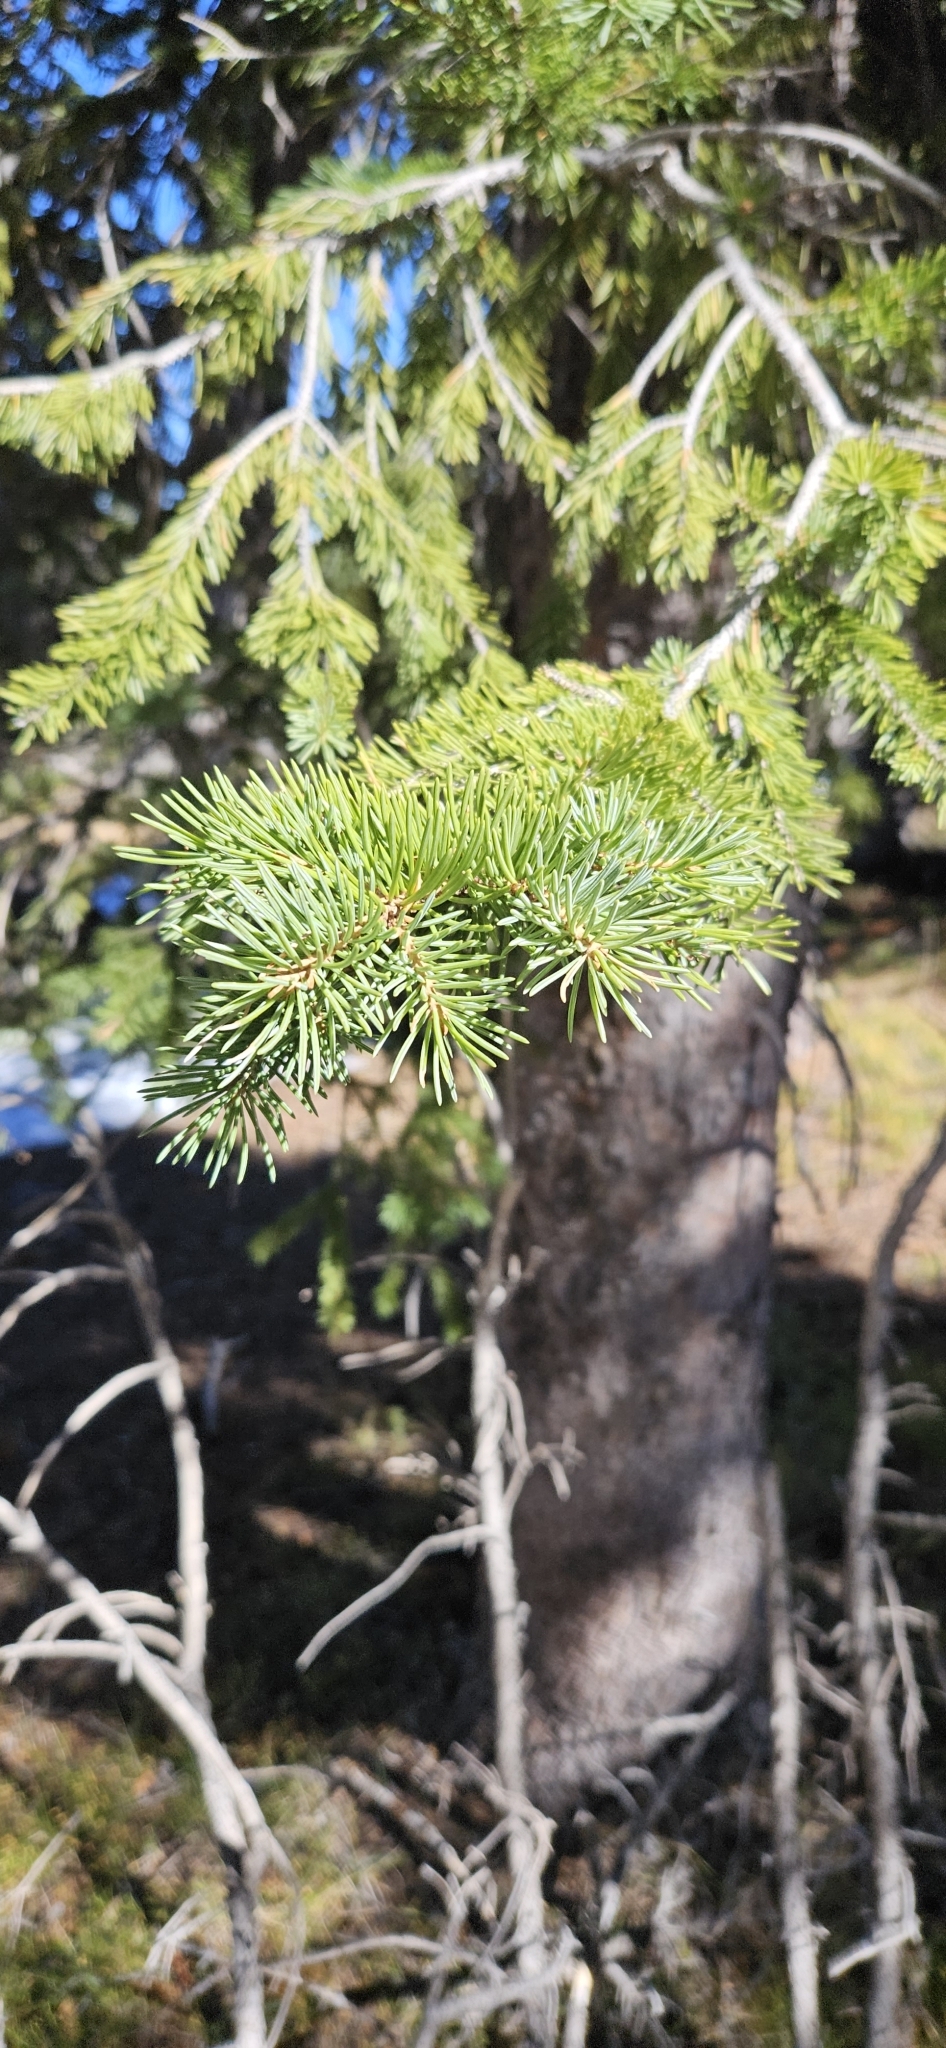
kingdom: Plantae
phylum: Tracheophyta
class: Pinopsida
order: Pinales
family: Pinaceae
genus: Pinus
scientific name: Pinus contorta
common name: Lodgepole pine
